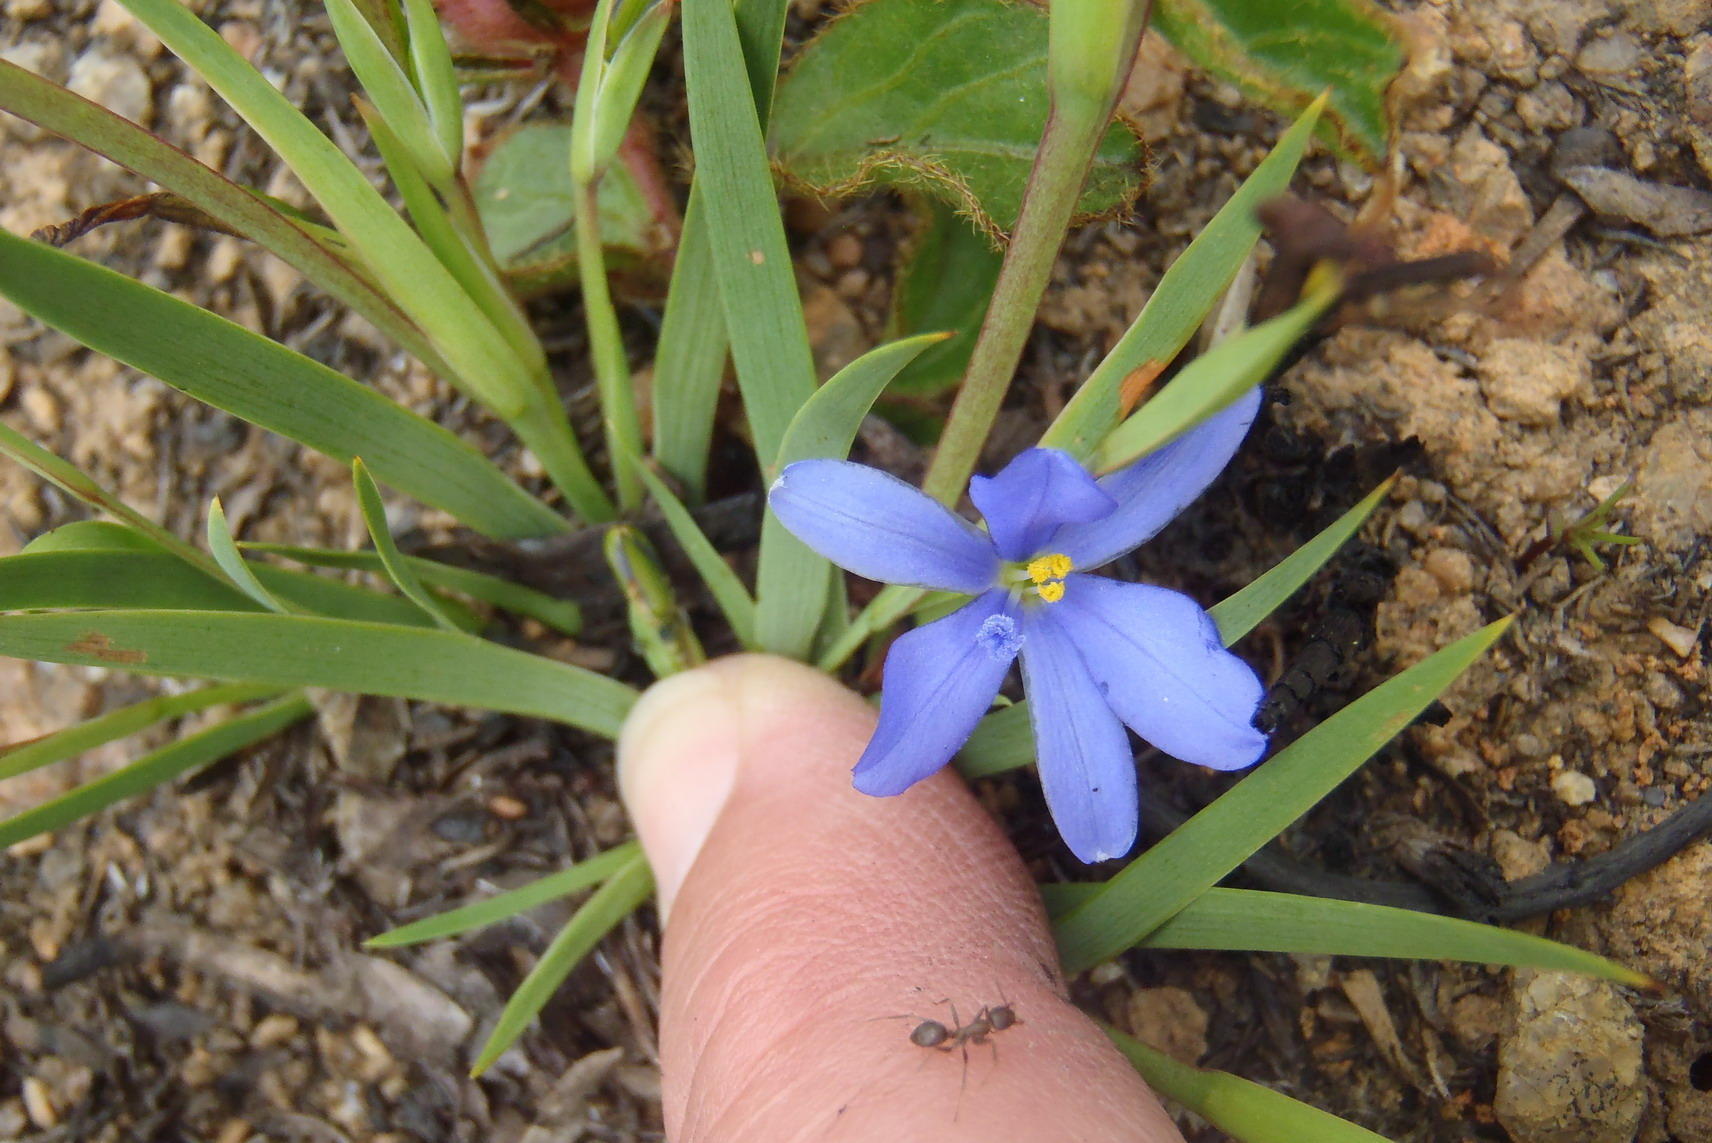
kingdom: Plantae
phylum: Tracheophyta
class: Liliopsida
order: Asparagales
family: Iridaceae
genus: Aristea
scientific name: Aristea nana
